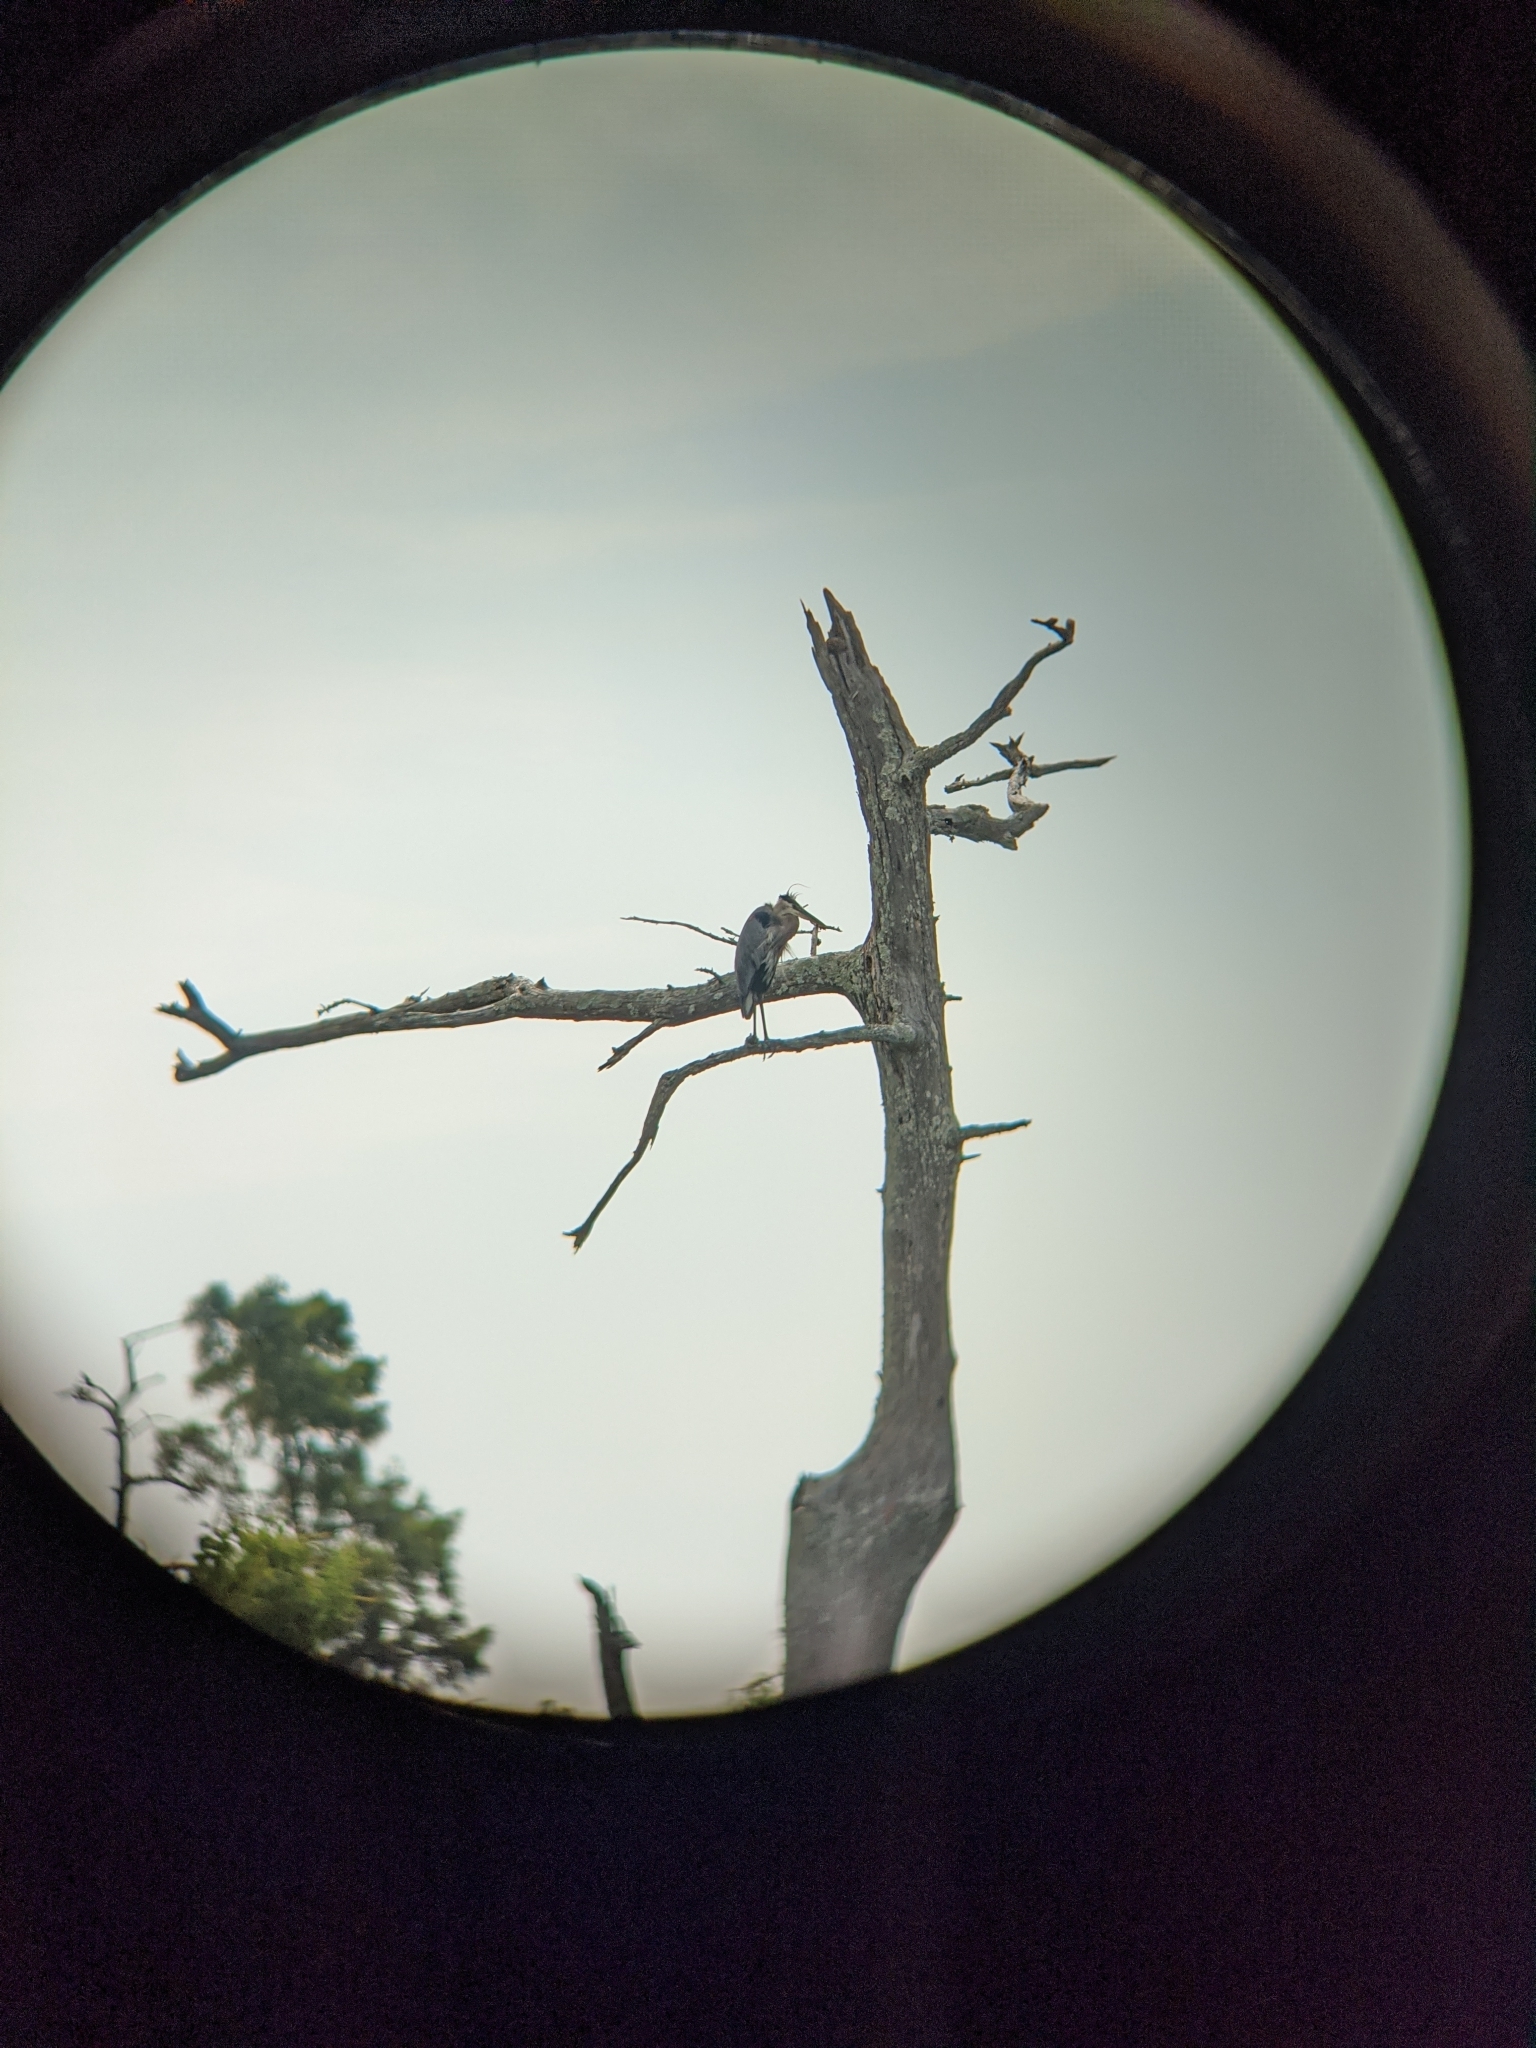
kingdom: Animalia
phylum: Chordata
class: Aves
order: Pelecaniformes
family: Ardeidae
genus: Ardea
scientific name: Ardea herodias
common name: Great blue heron
